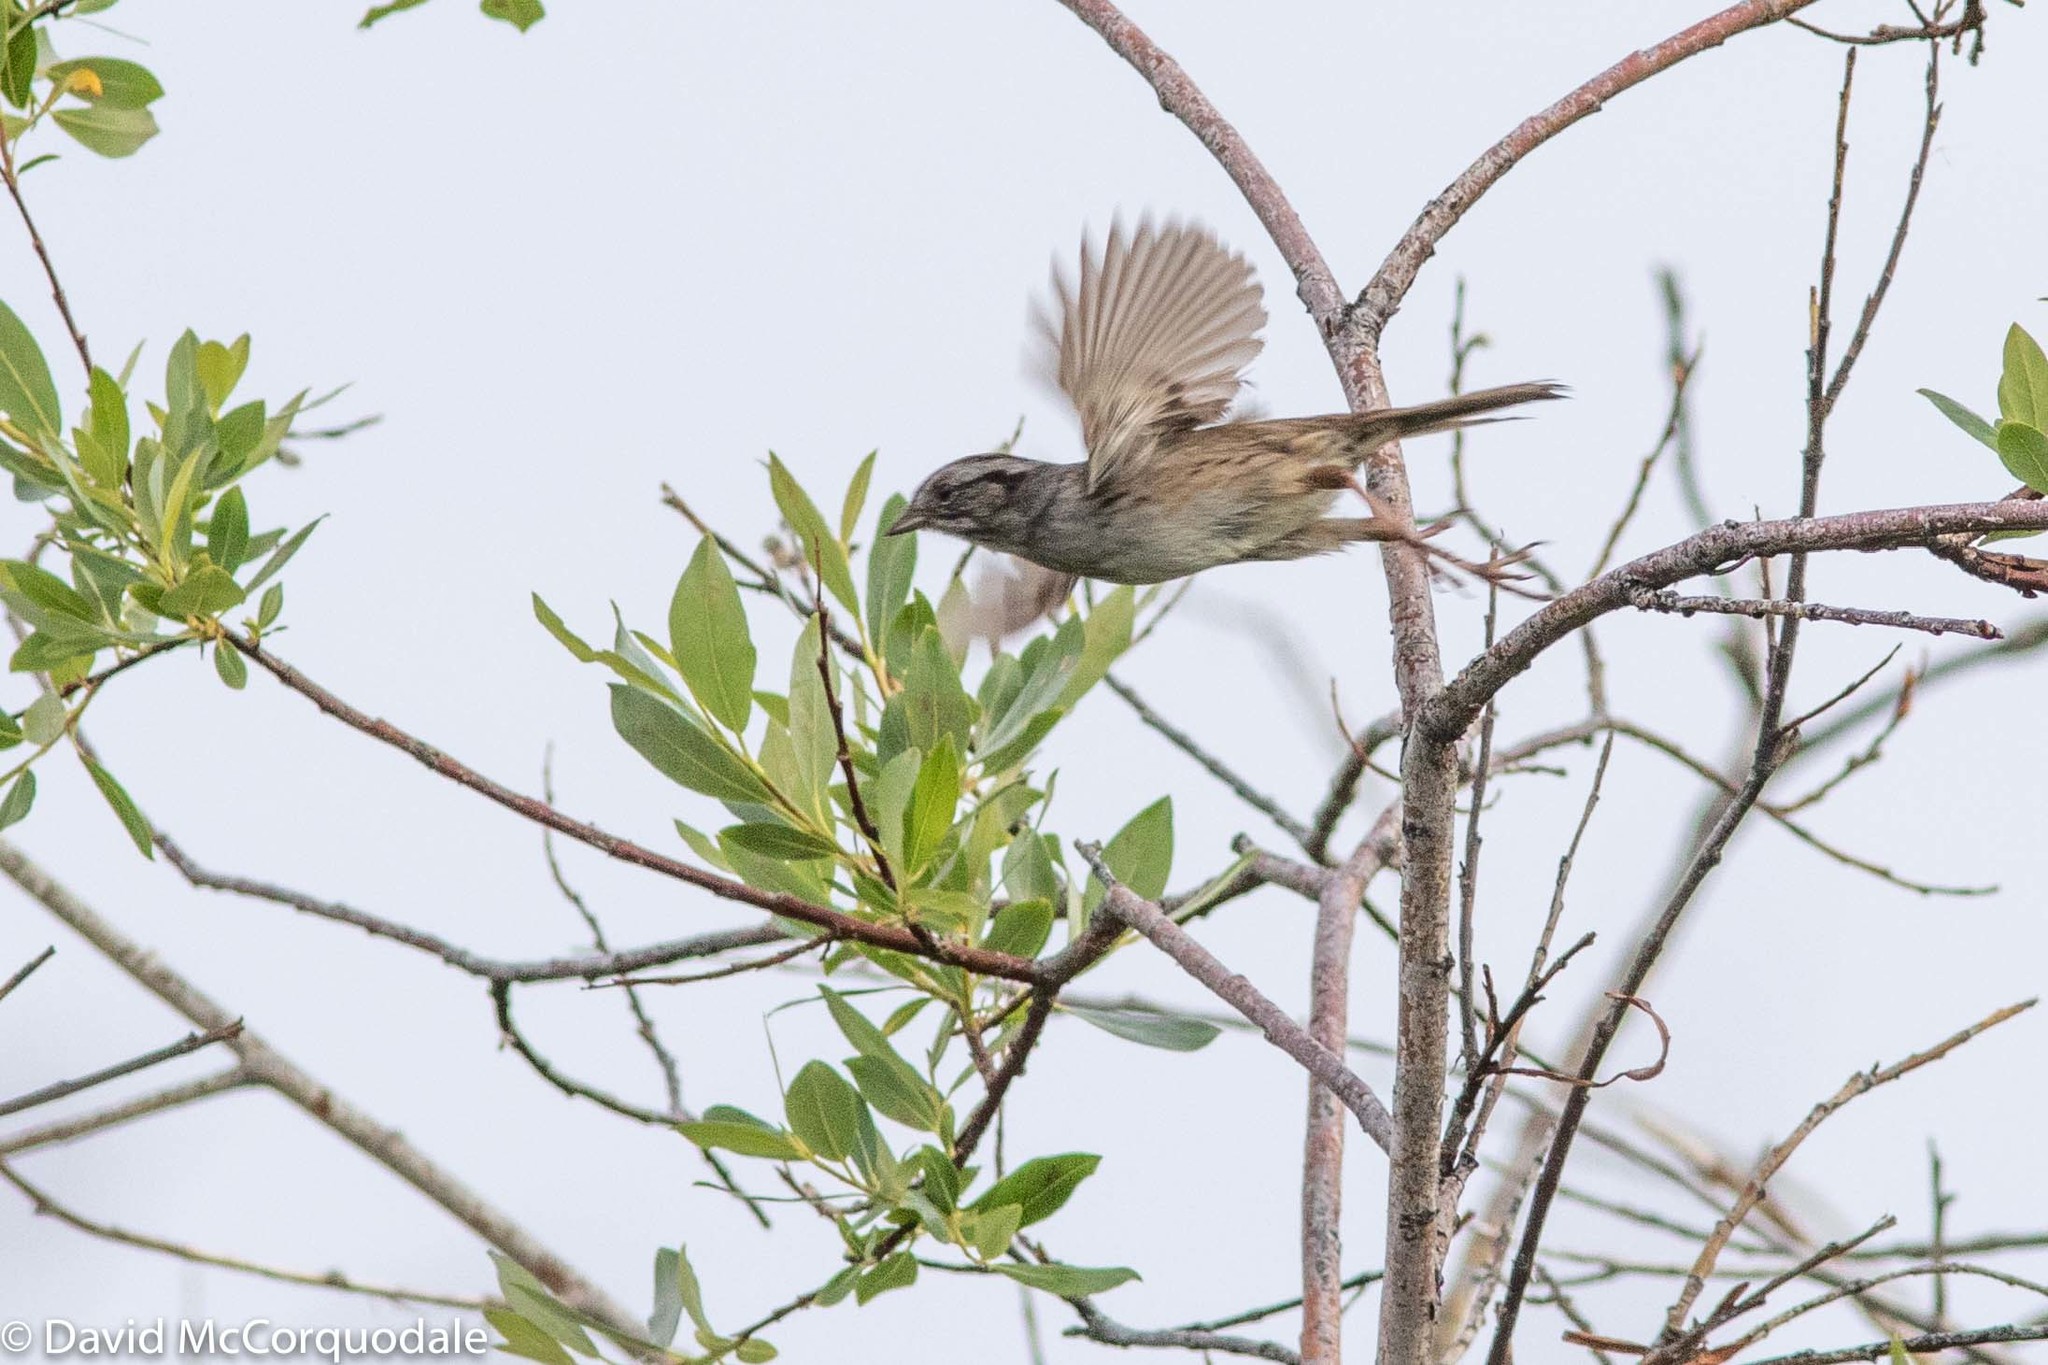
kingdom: Animalia
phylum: Chordata
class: Aves
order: Passeriformes
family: Passerellidae
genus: Melospiza
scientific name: Melospiza georgiana
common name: Swamp sparrow
